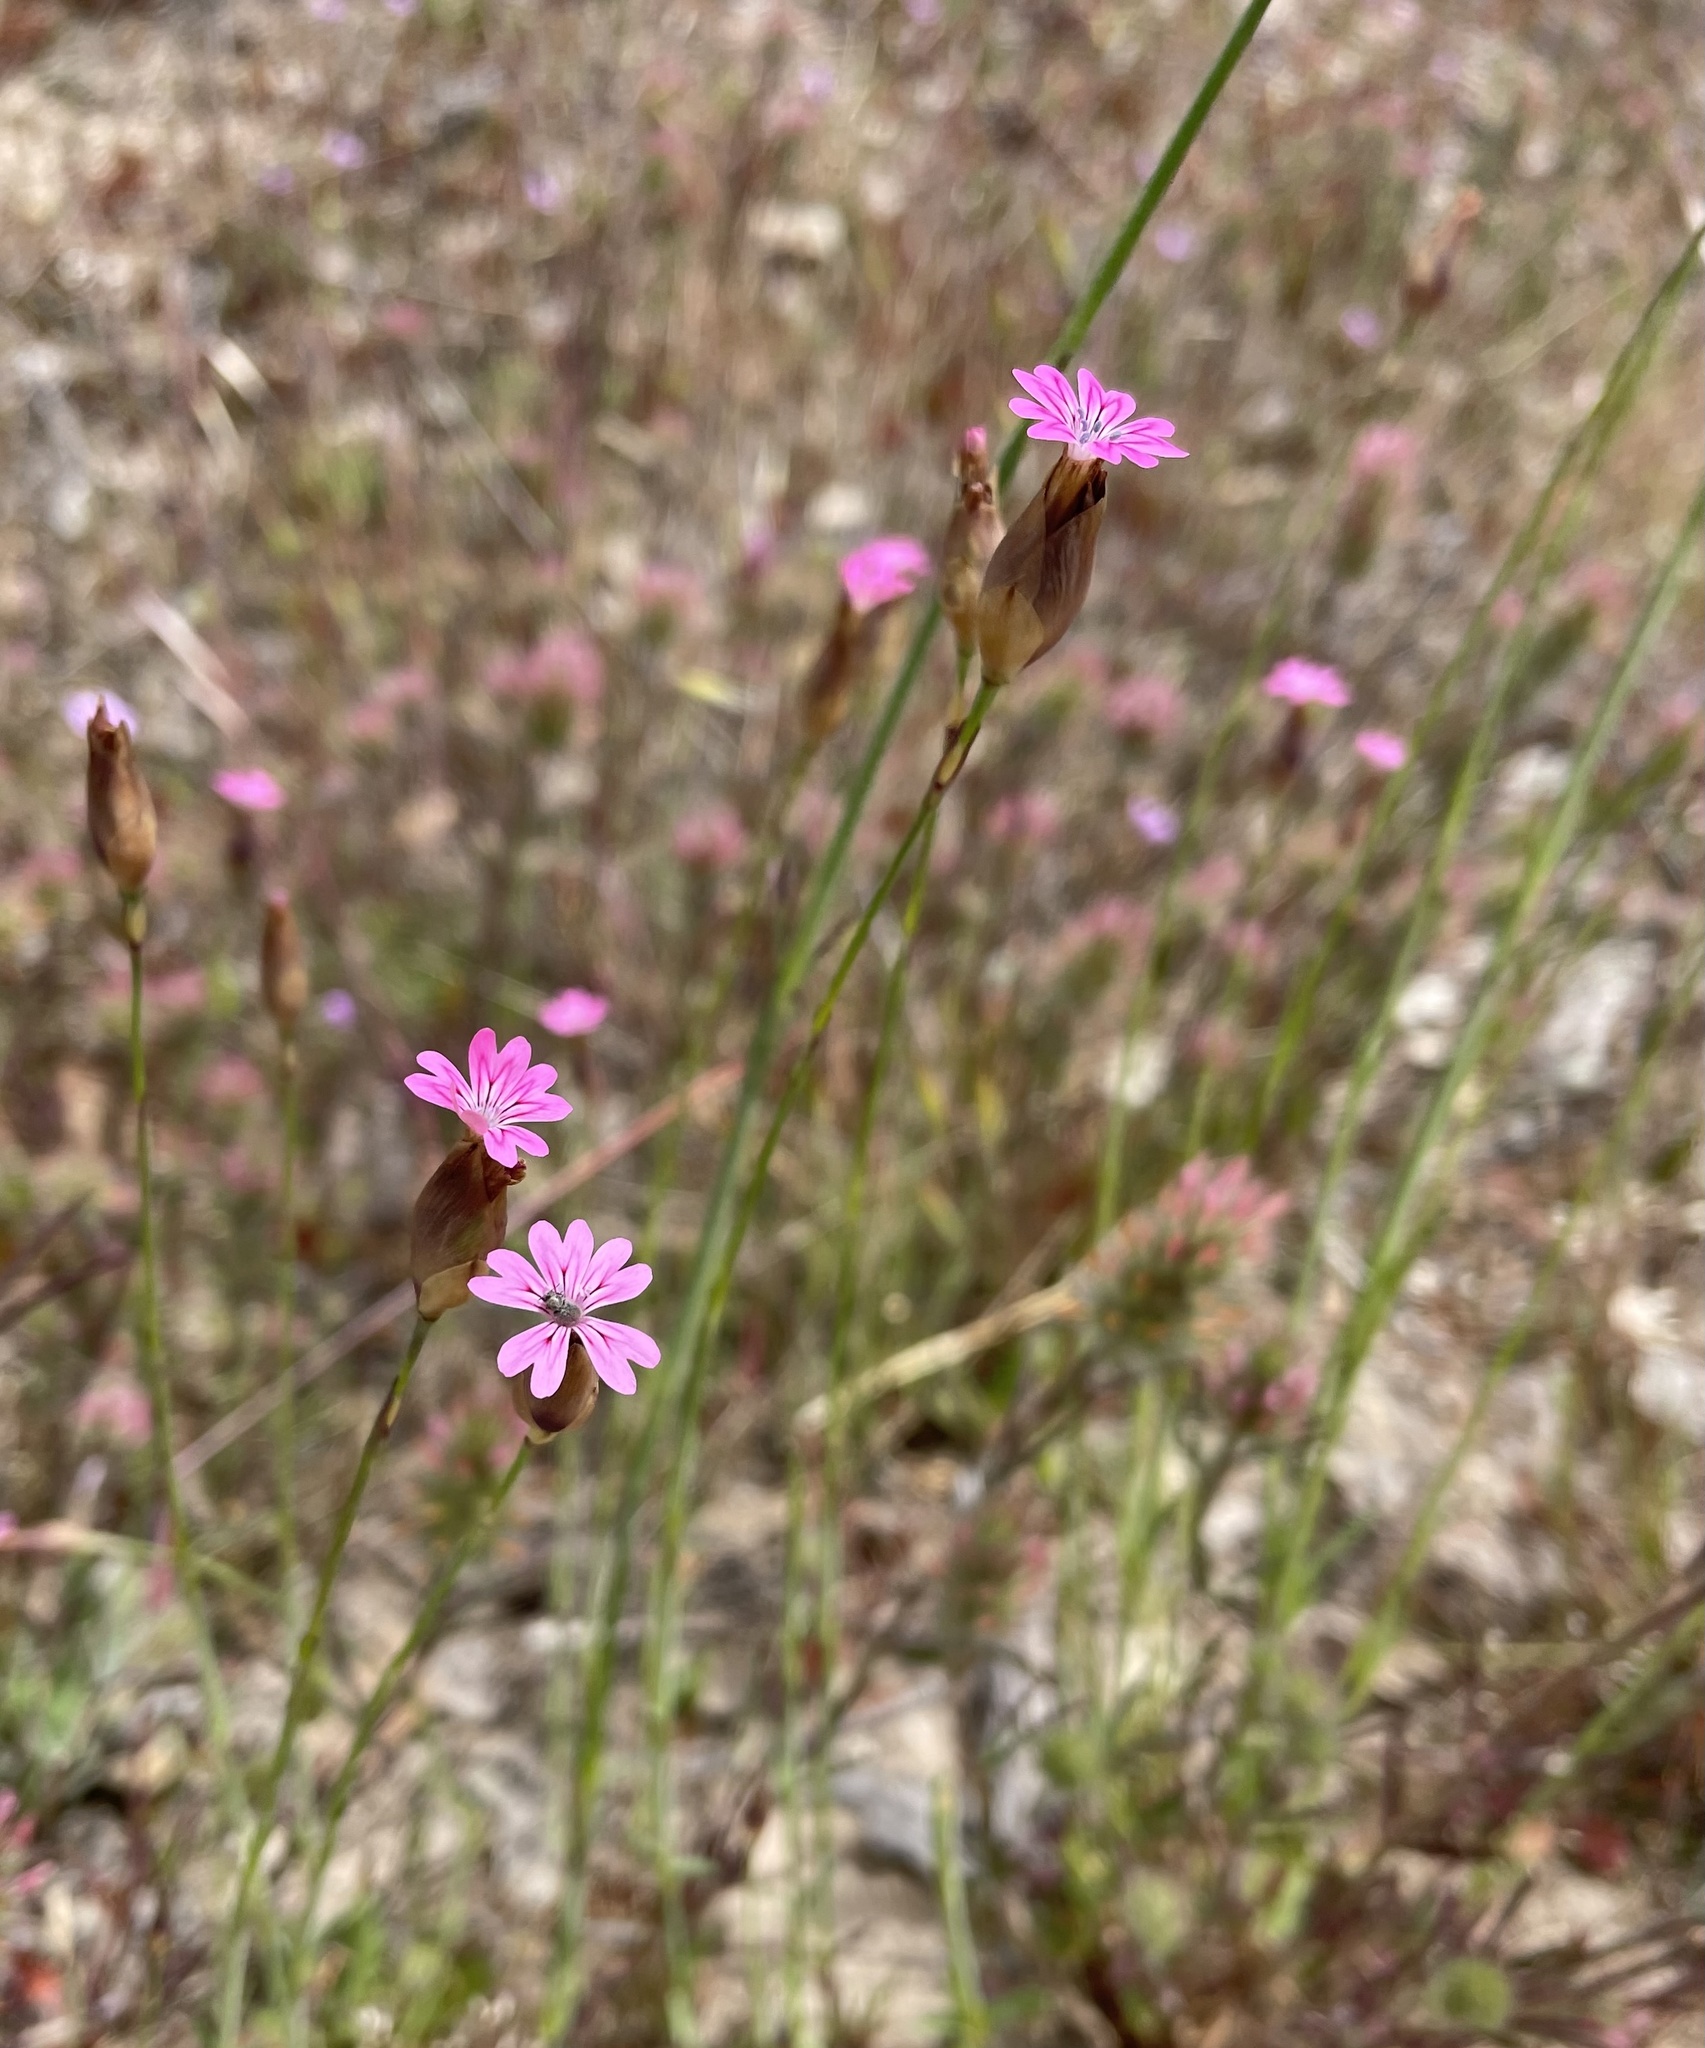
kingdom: Plantae
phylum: Tracheophyta
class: Magnoliopsida
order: Caryophyllales
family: Caryophyllaceae
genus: Petrorhagia
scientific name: Petrorhagia dubia
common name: Hairypink
